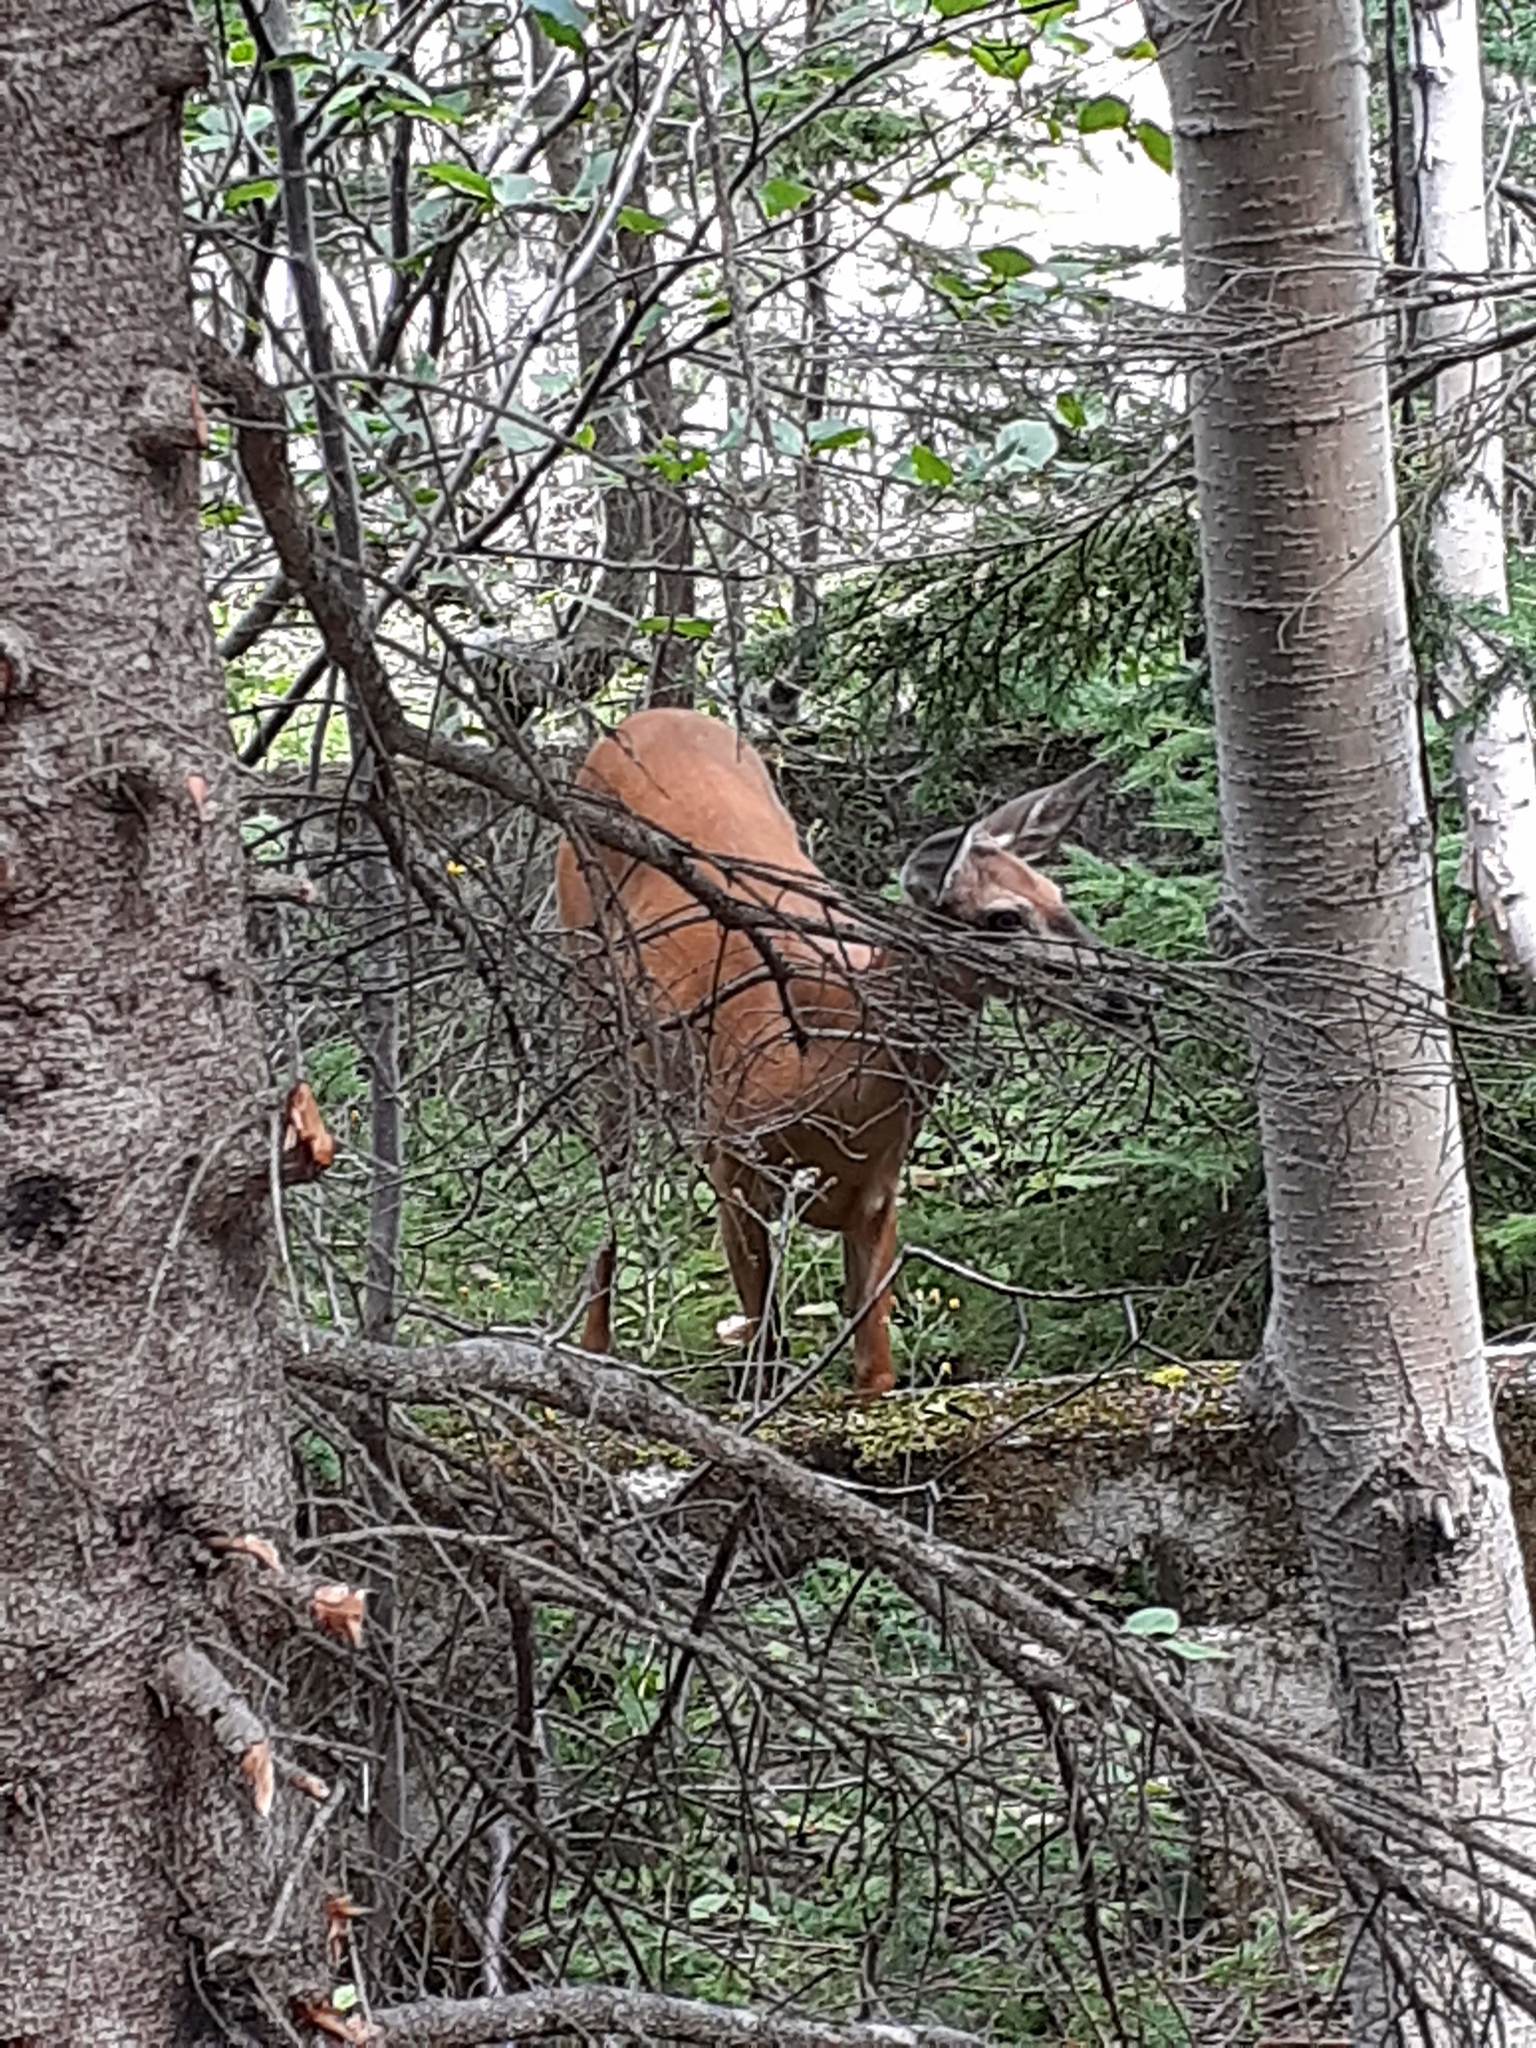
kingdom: Animalia
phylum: Chordata
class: Mammalia
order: Artiodactyla
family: Cervidae
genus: Odocoileus
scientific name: Odocoileus virginianus
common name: White-tailed deer
